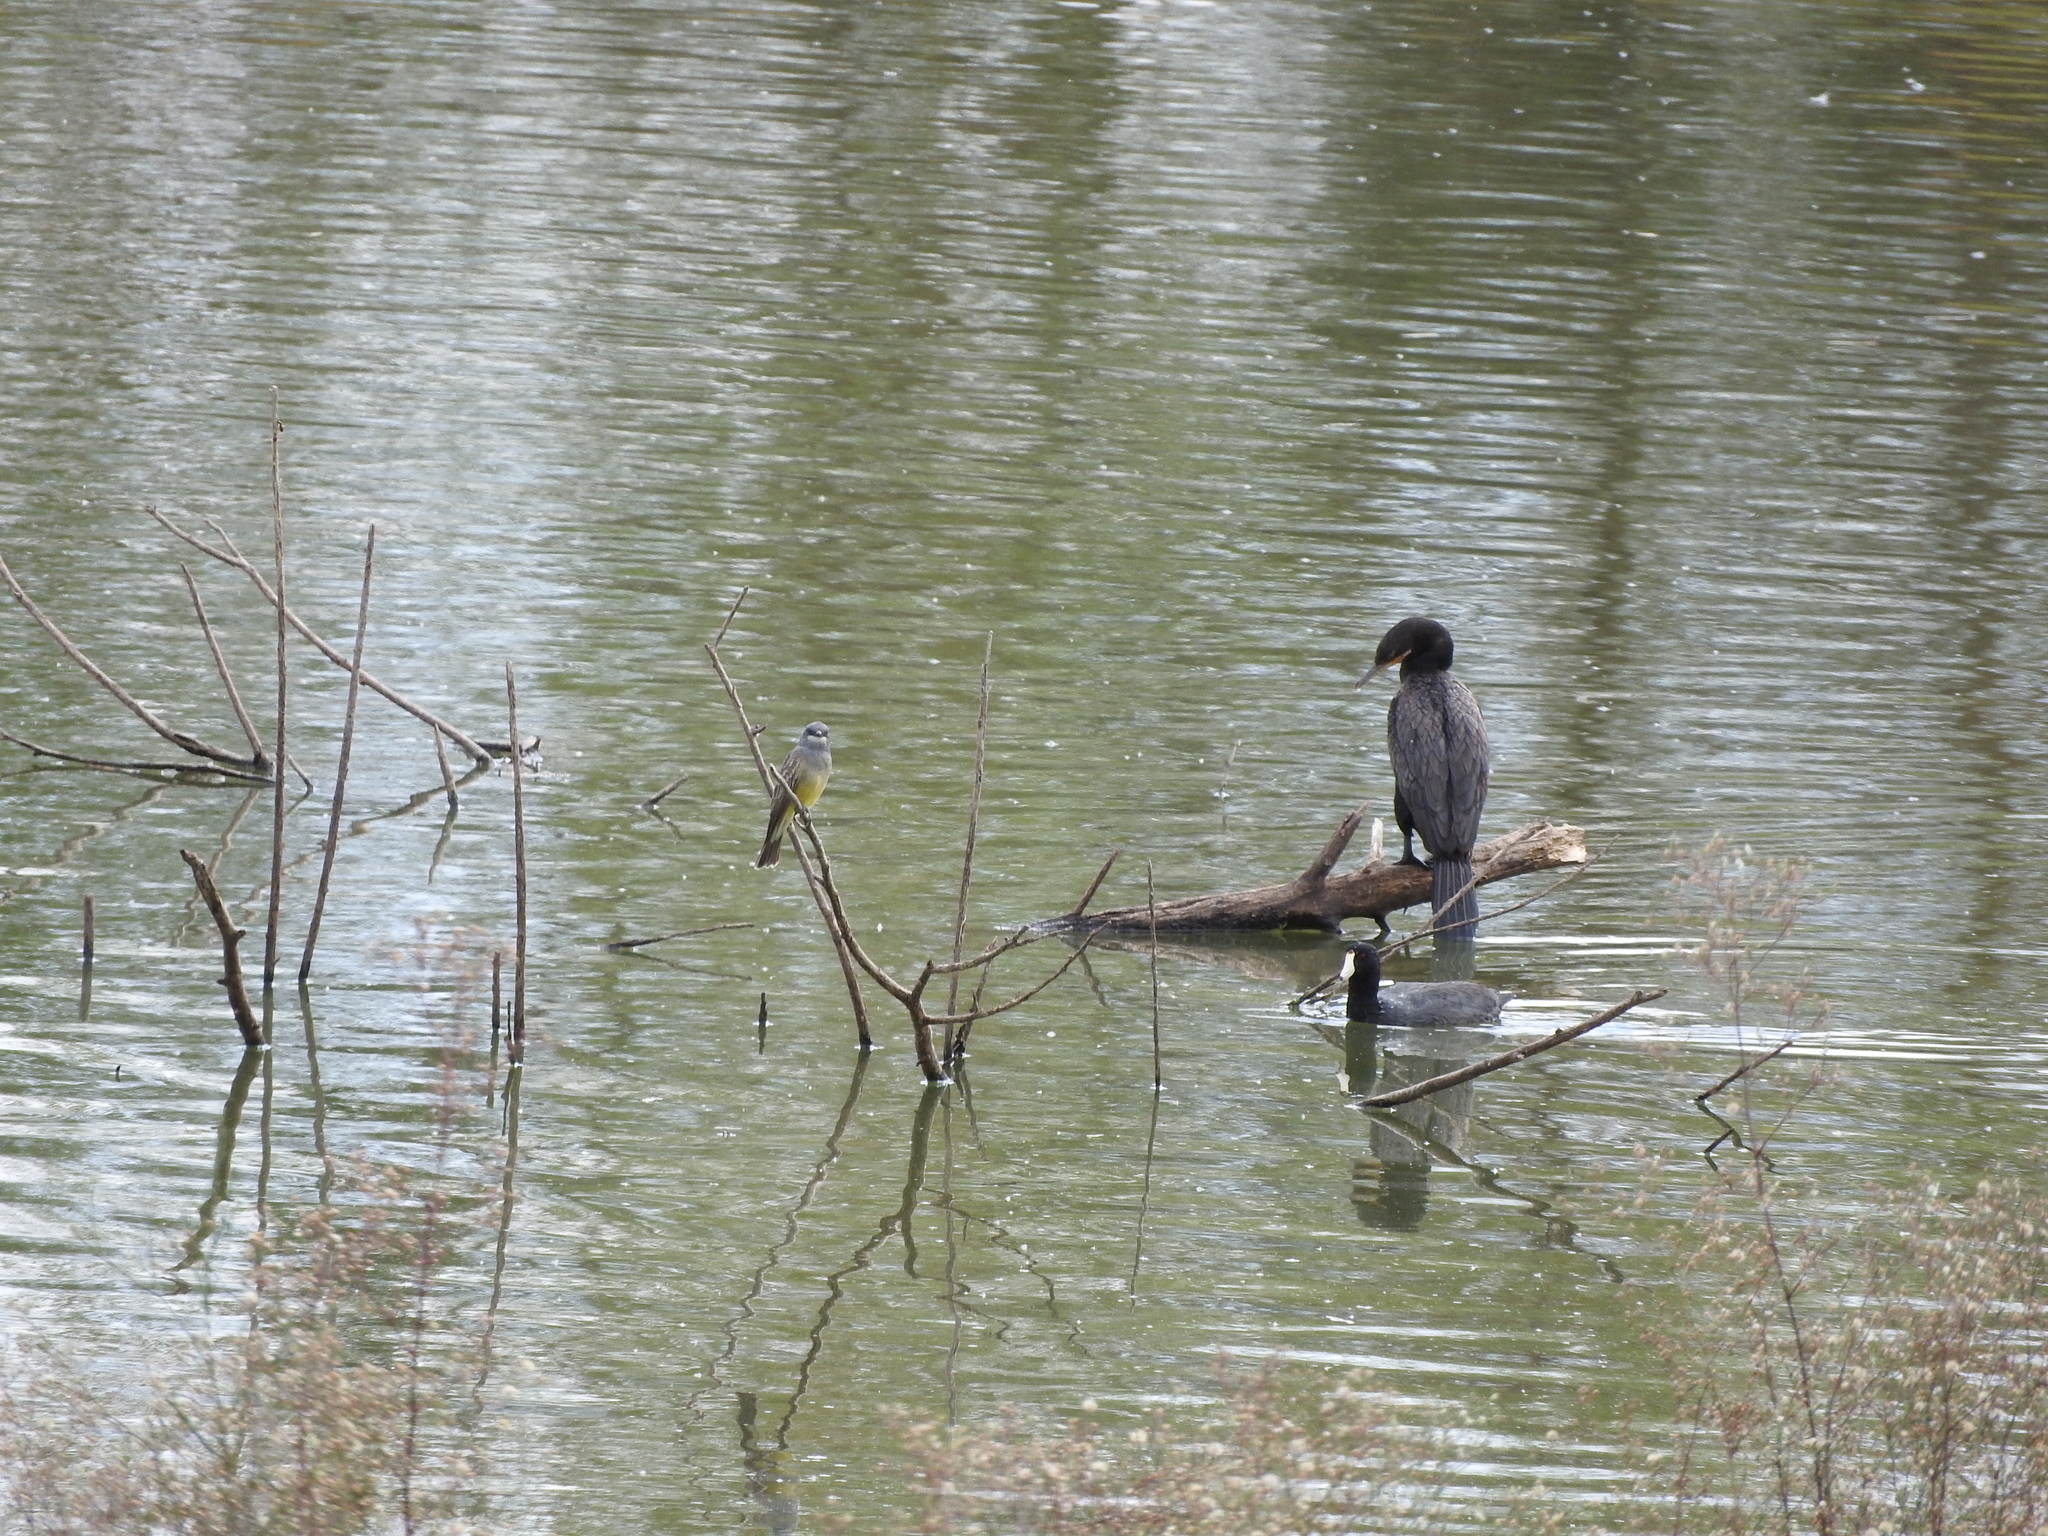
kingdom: Animalia
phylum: Chordata
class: Aves
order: Passeriformes
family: Tyrannidae
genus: Tyrannus
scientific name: Tyrannus vociferans
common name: Cassin's kingbird
